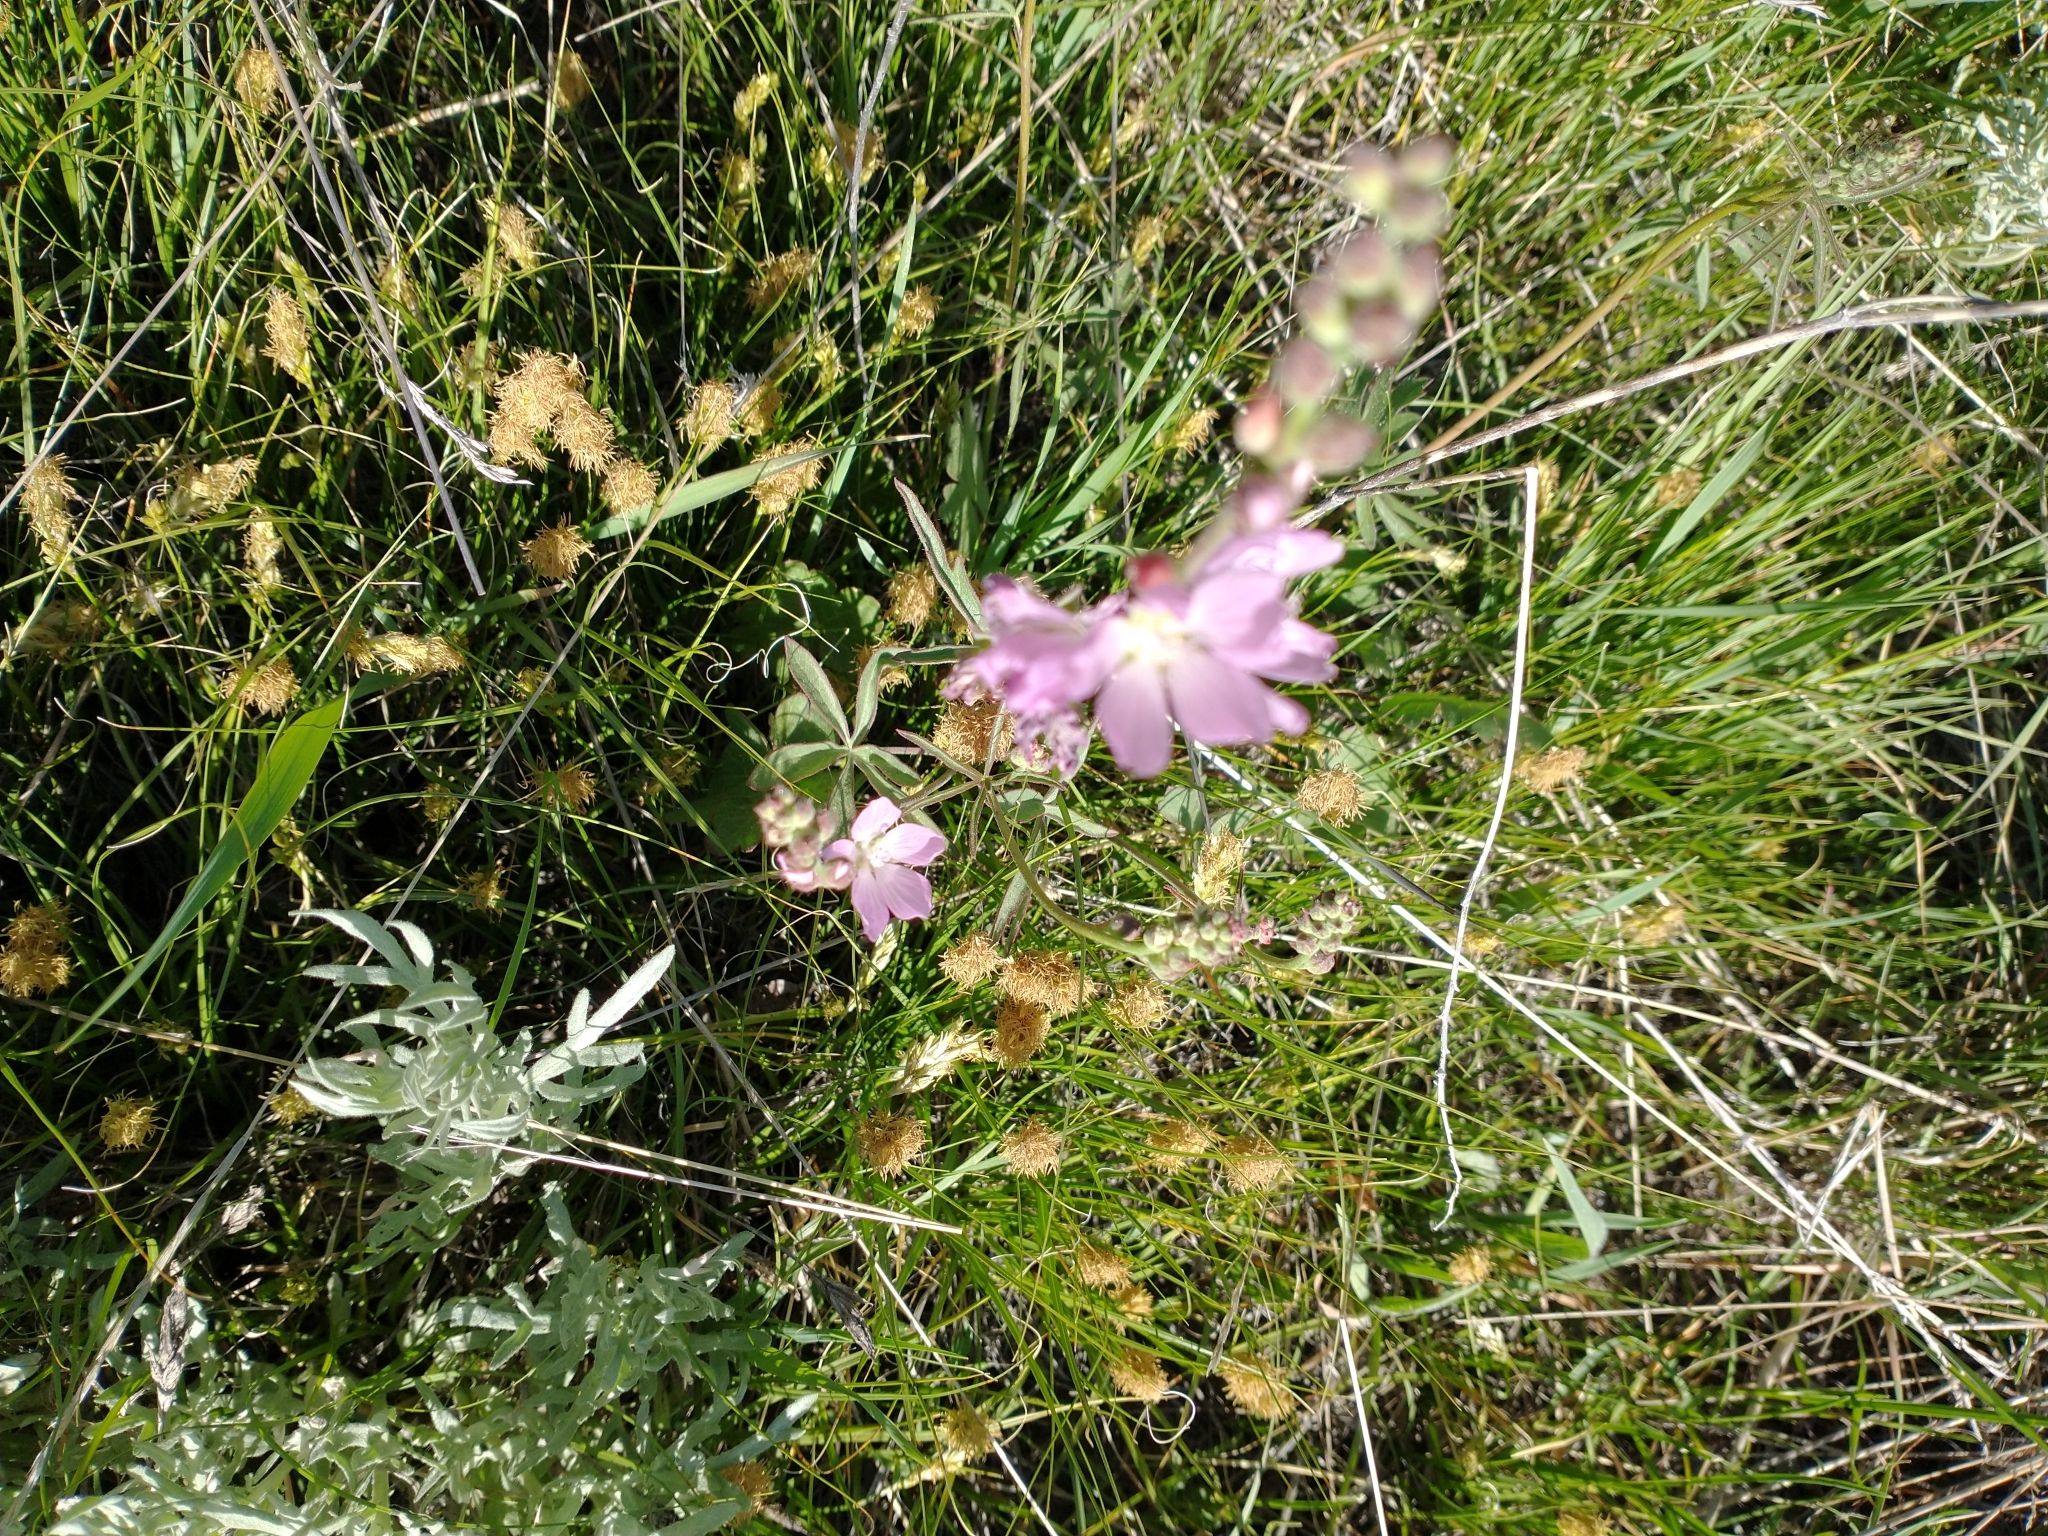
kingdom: Plantae
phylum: Tracheophyta
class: Magnoliopsida
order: Malvales
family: Malvaceae
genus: Sidalcea
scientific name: Sidalcea oregana
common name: Oregon checker-mallow
